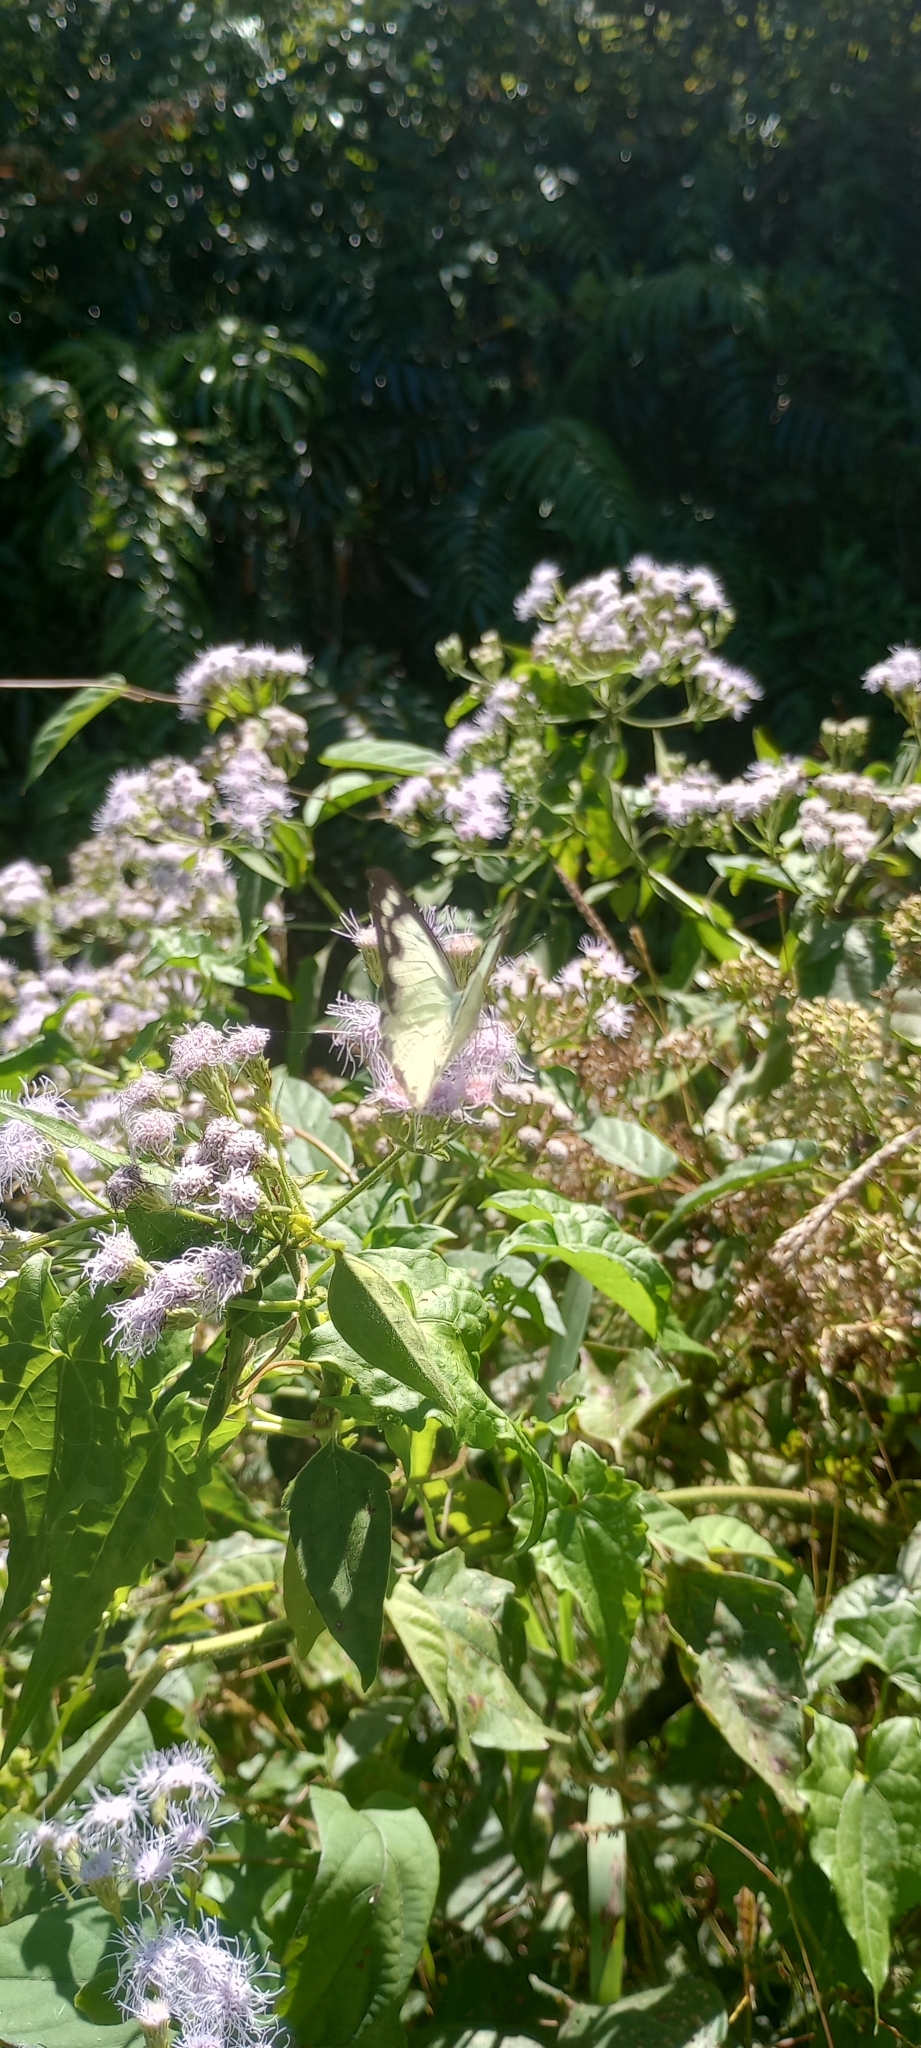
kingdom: Plantae
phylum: Tracheophyta
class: Magnoliopsida
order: Asterales
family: Asteraceae
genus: Chromolaena
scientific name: Chromolaena odorata
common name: Siamweed
